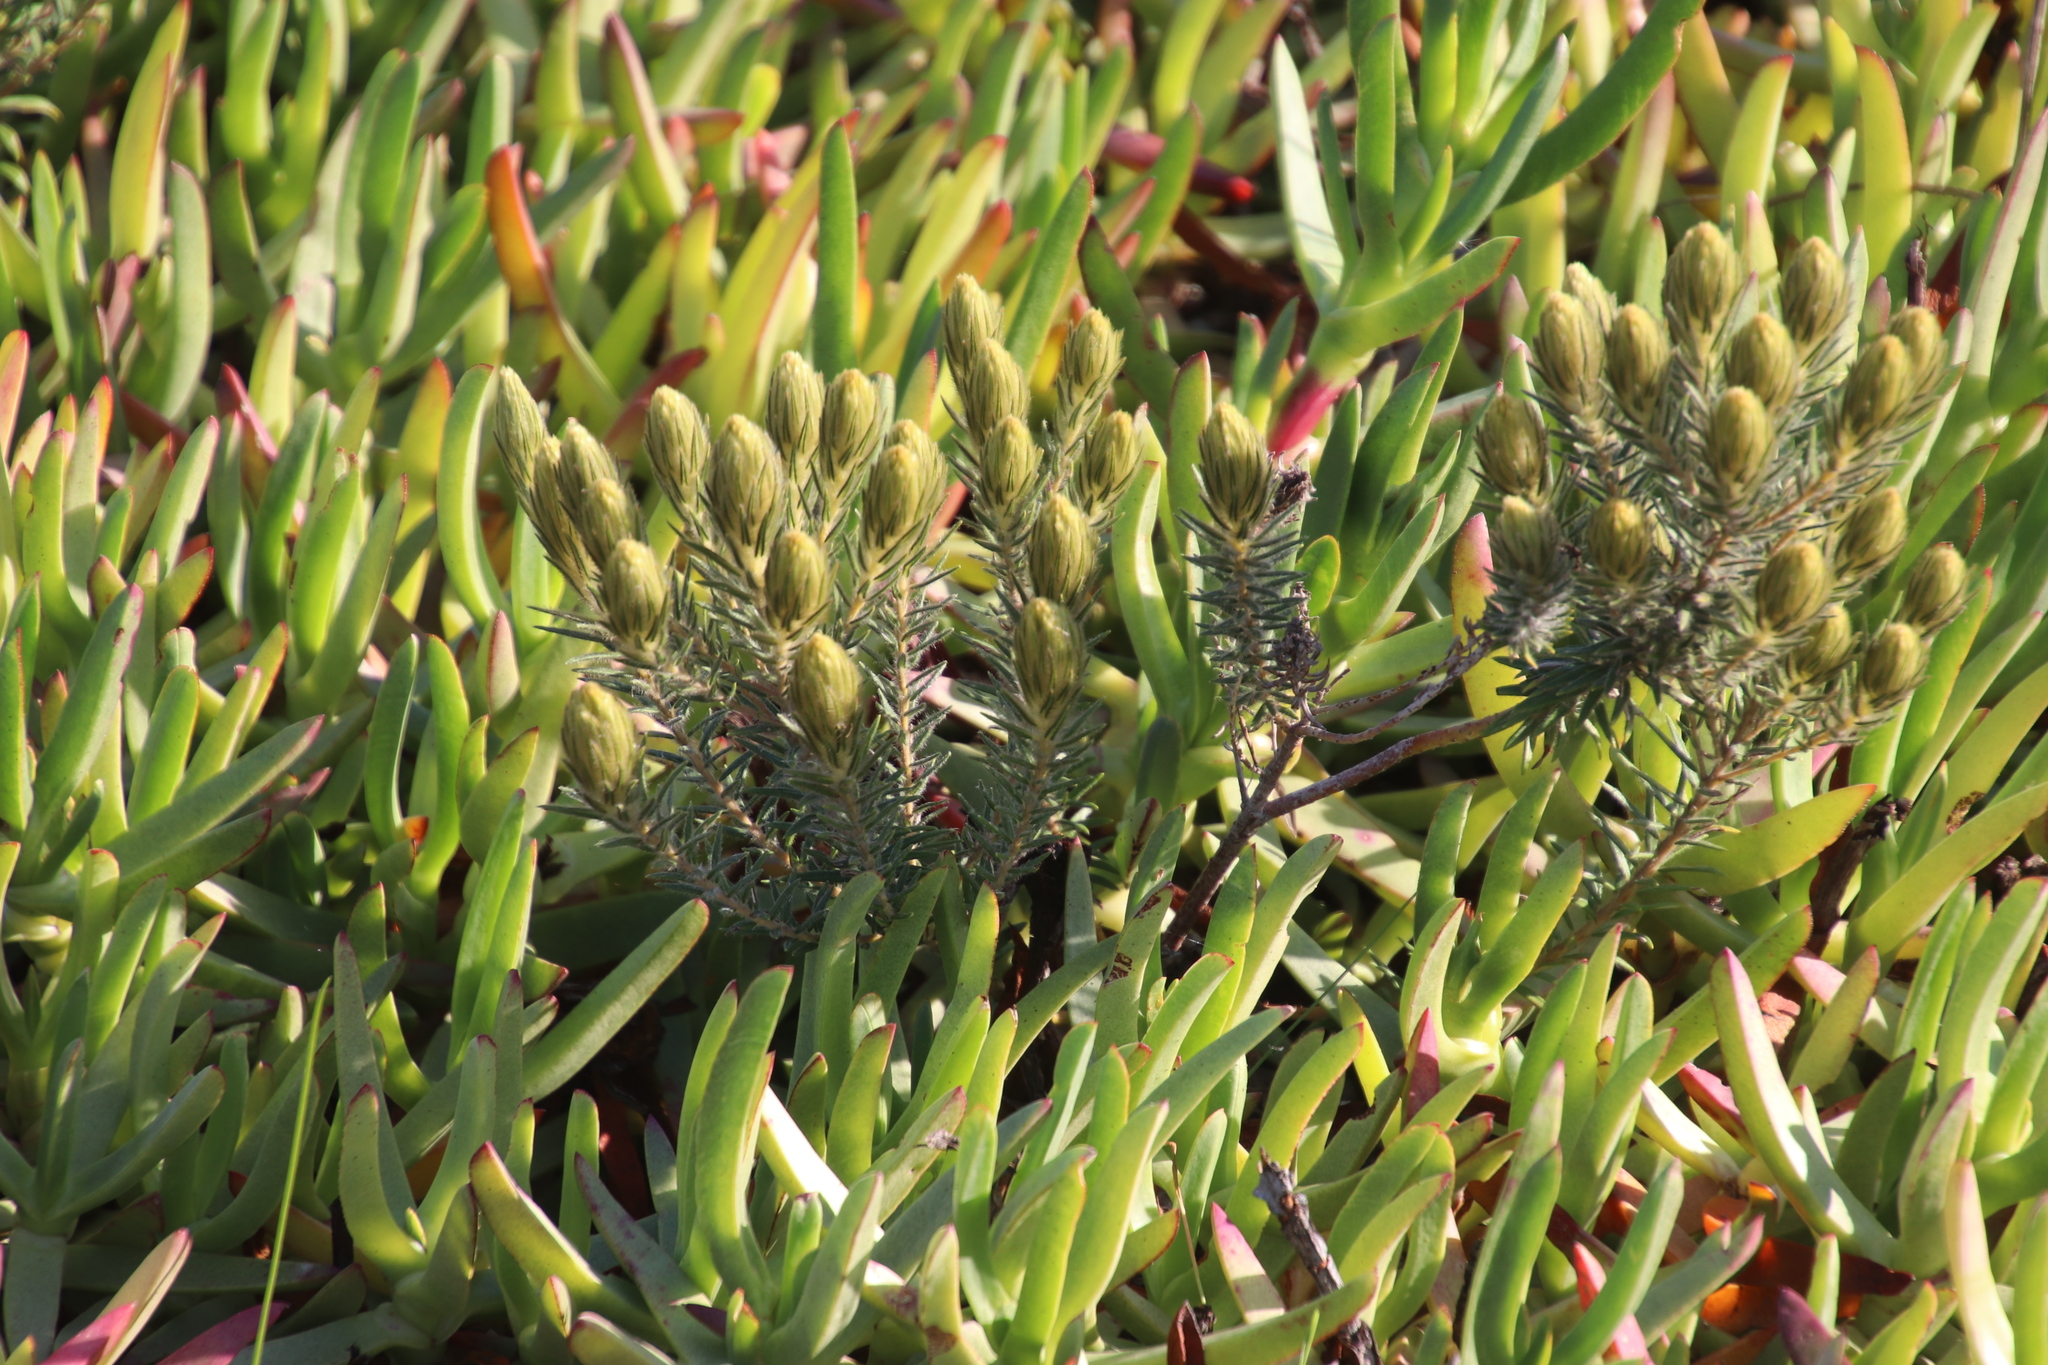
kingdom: Plantae
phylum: Tracheophyta
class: Magnoliopsida
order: Rosales
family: Rhamnaceae
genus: Phylica
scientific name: Phylica pubescens
